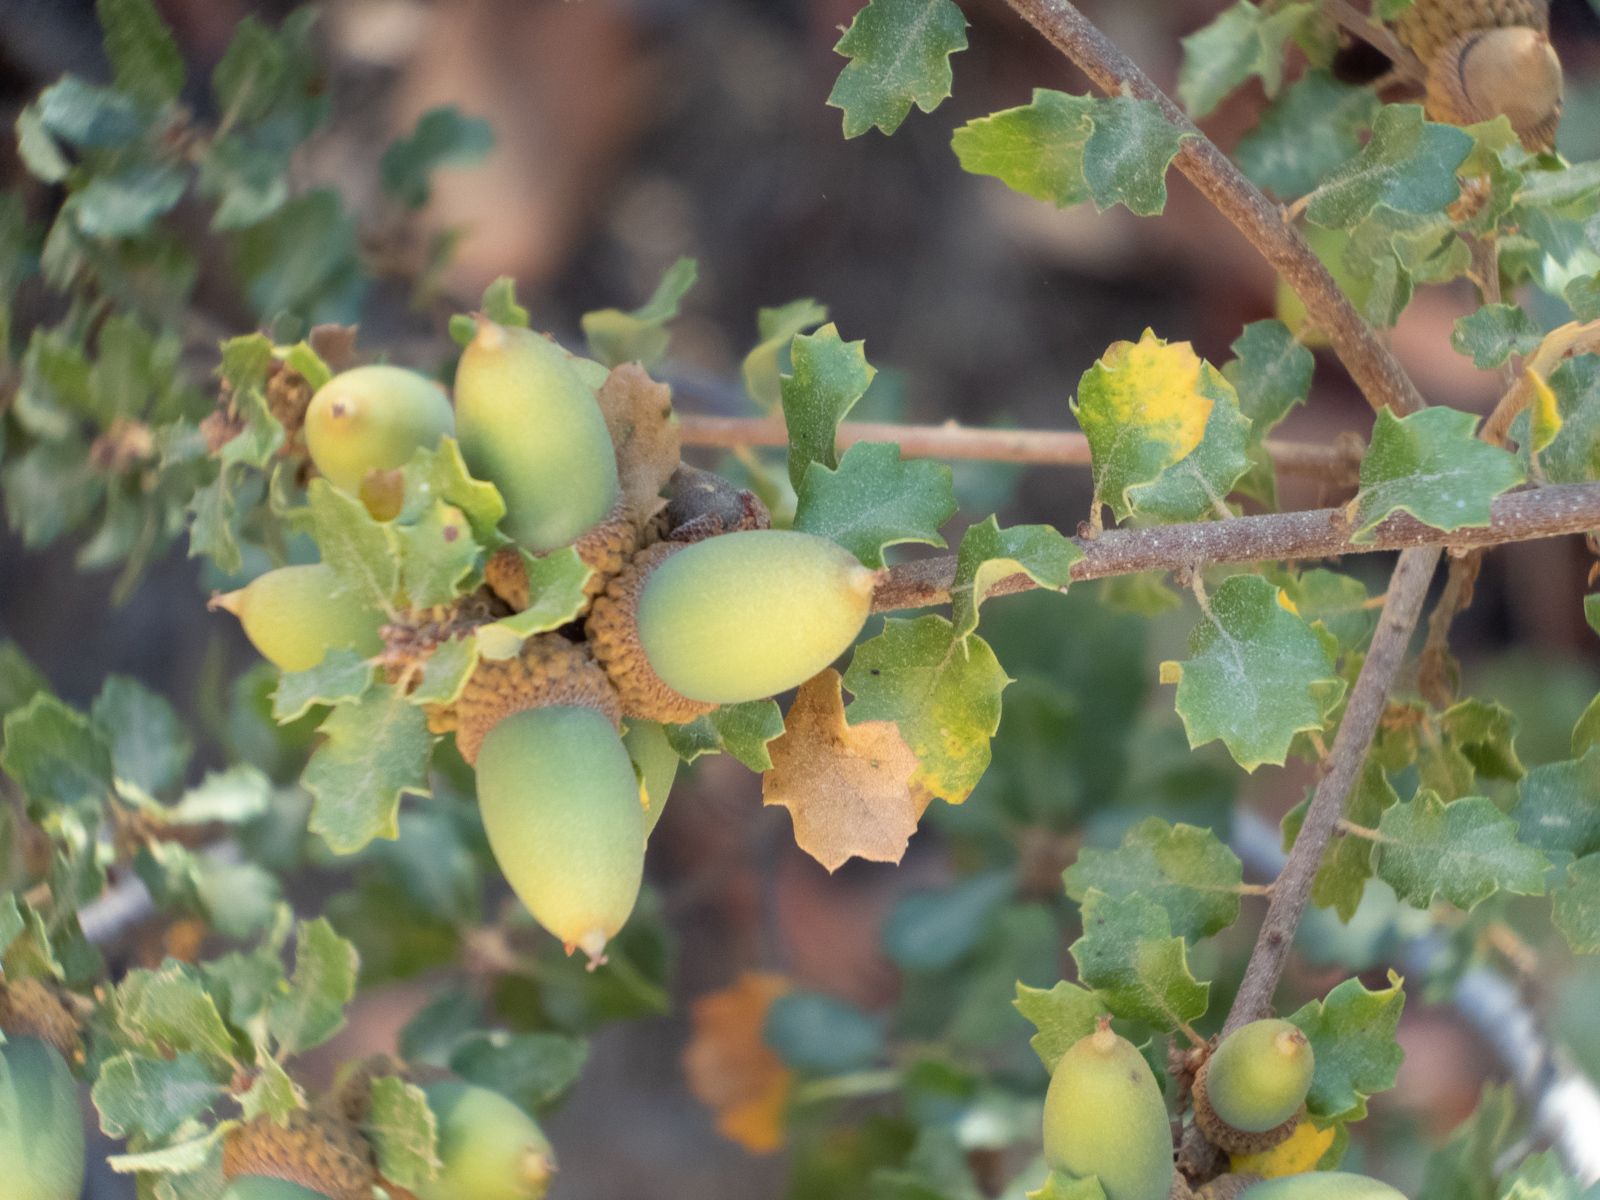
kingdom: Plantae
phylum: Tracheophyta
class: Magnoliopsida
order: Fagales
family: Fagaceae
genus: Quercus
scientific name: Quercus berberidifolia
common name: California scrub oak
